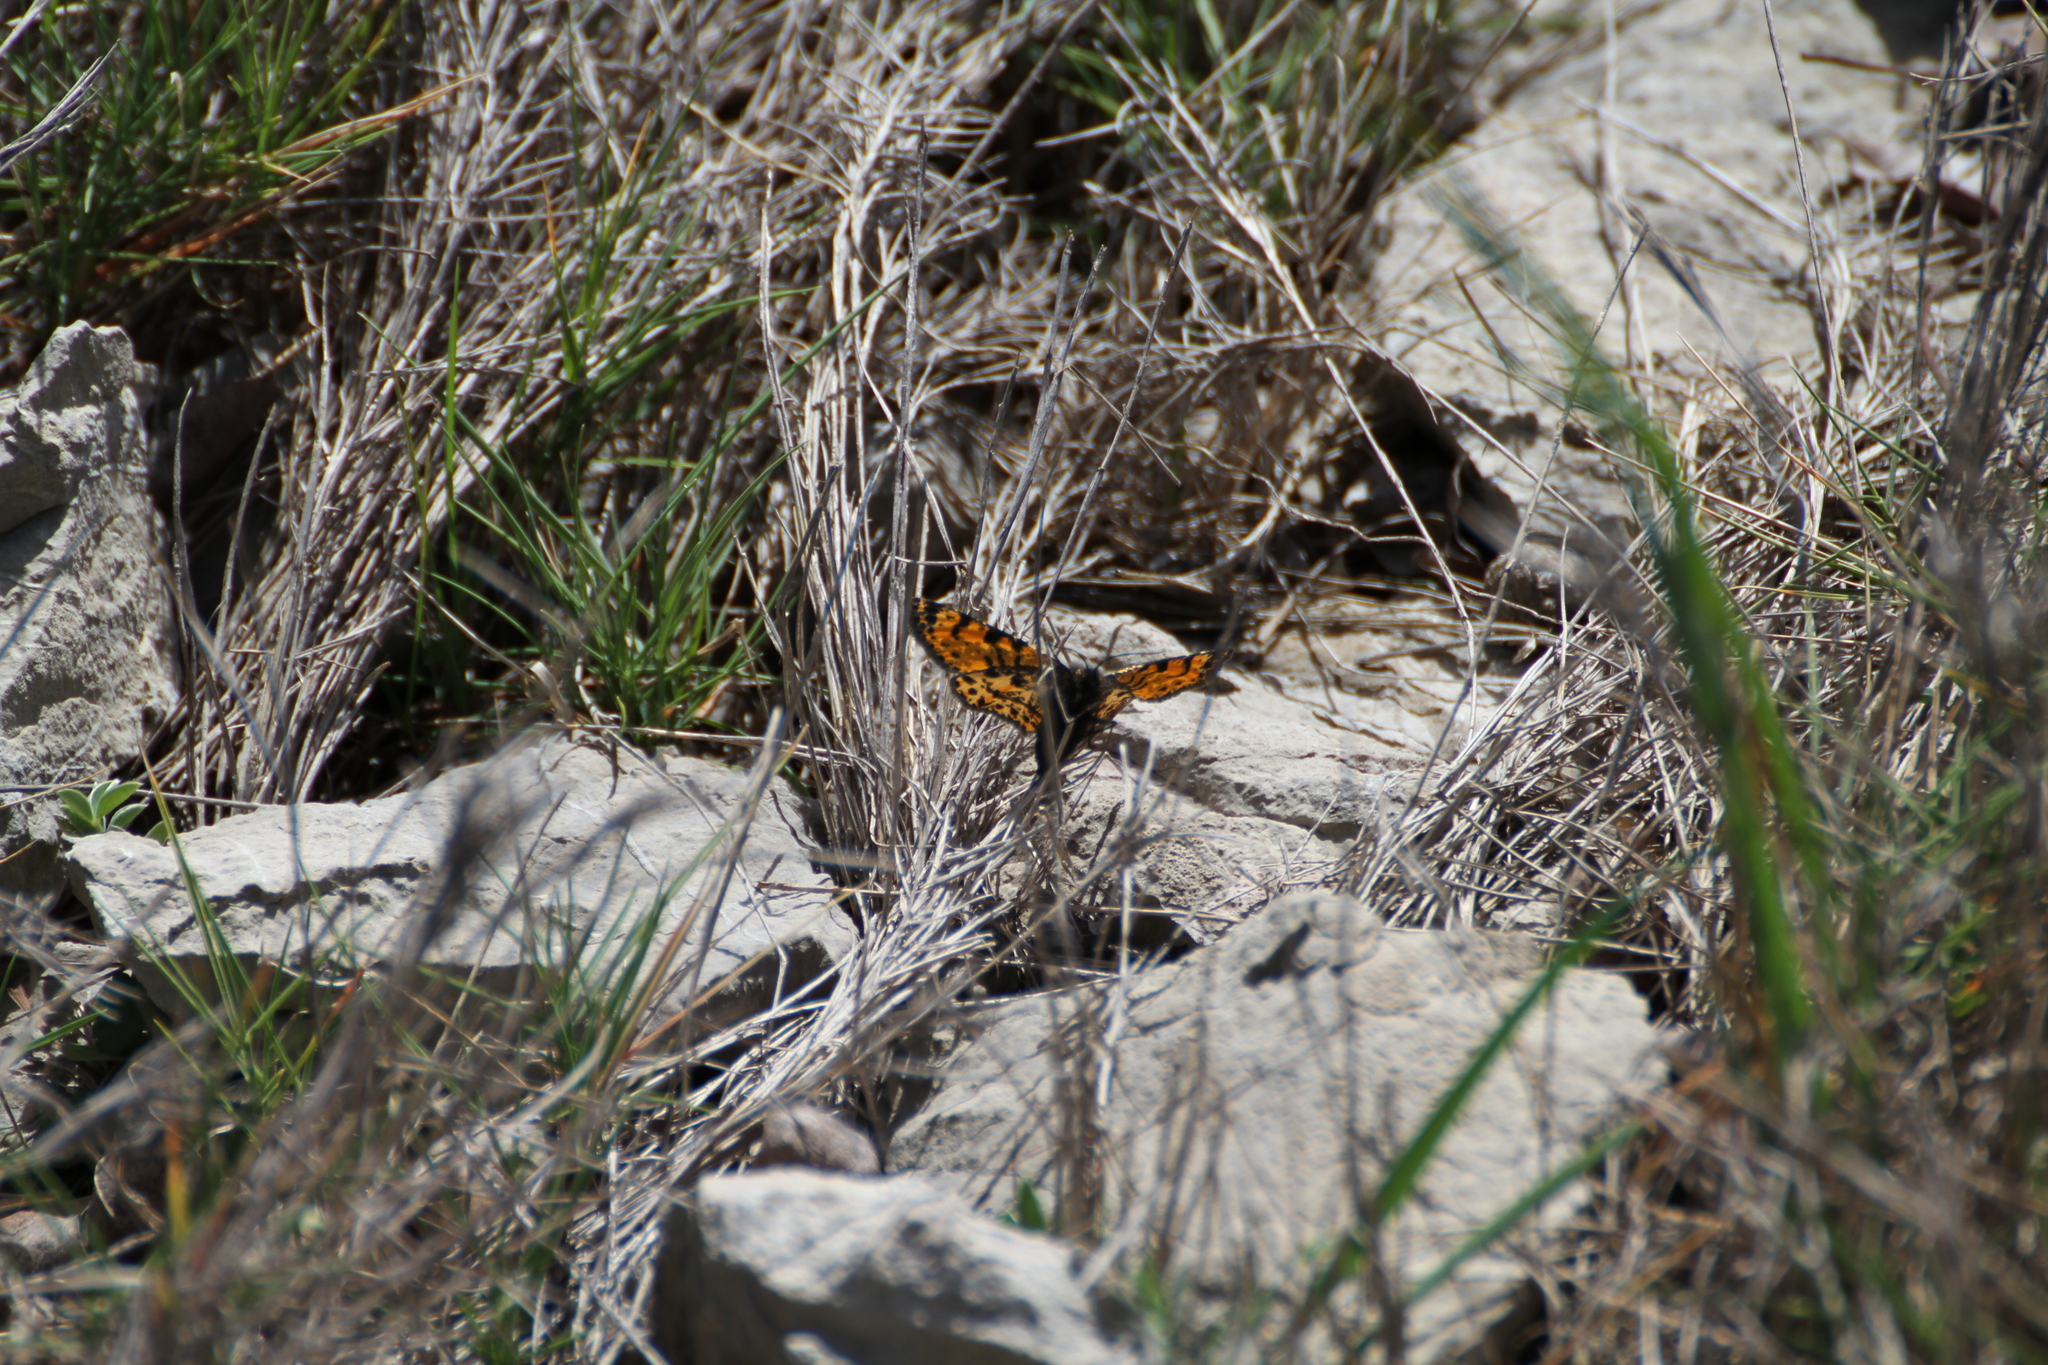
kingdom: Animalia
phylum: Arthropoda
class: Insecta
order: Lepidoptera
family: Geometridae
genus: Eurranthis
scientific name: Eurranthis plummistaria
